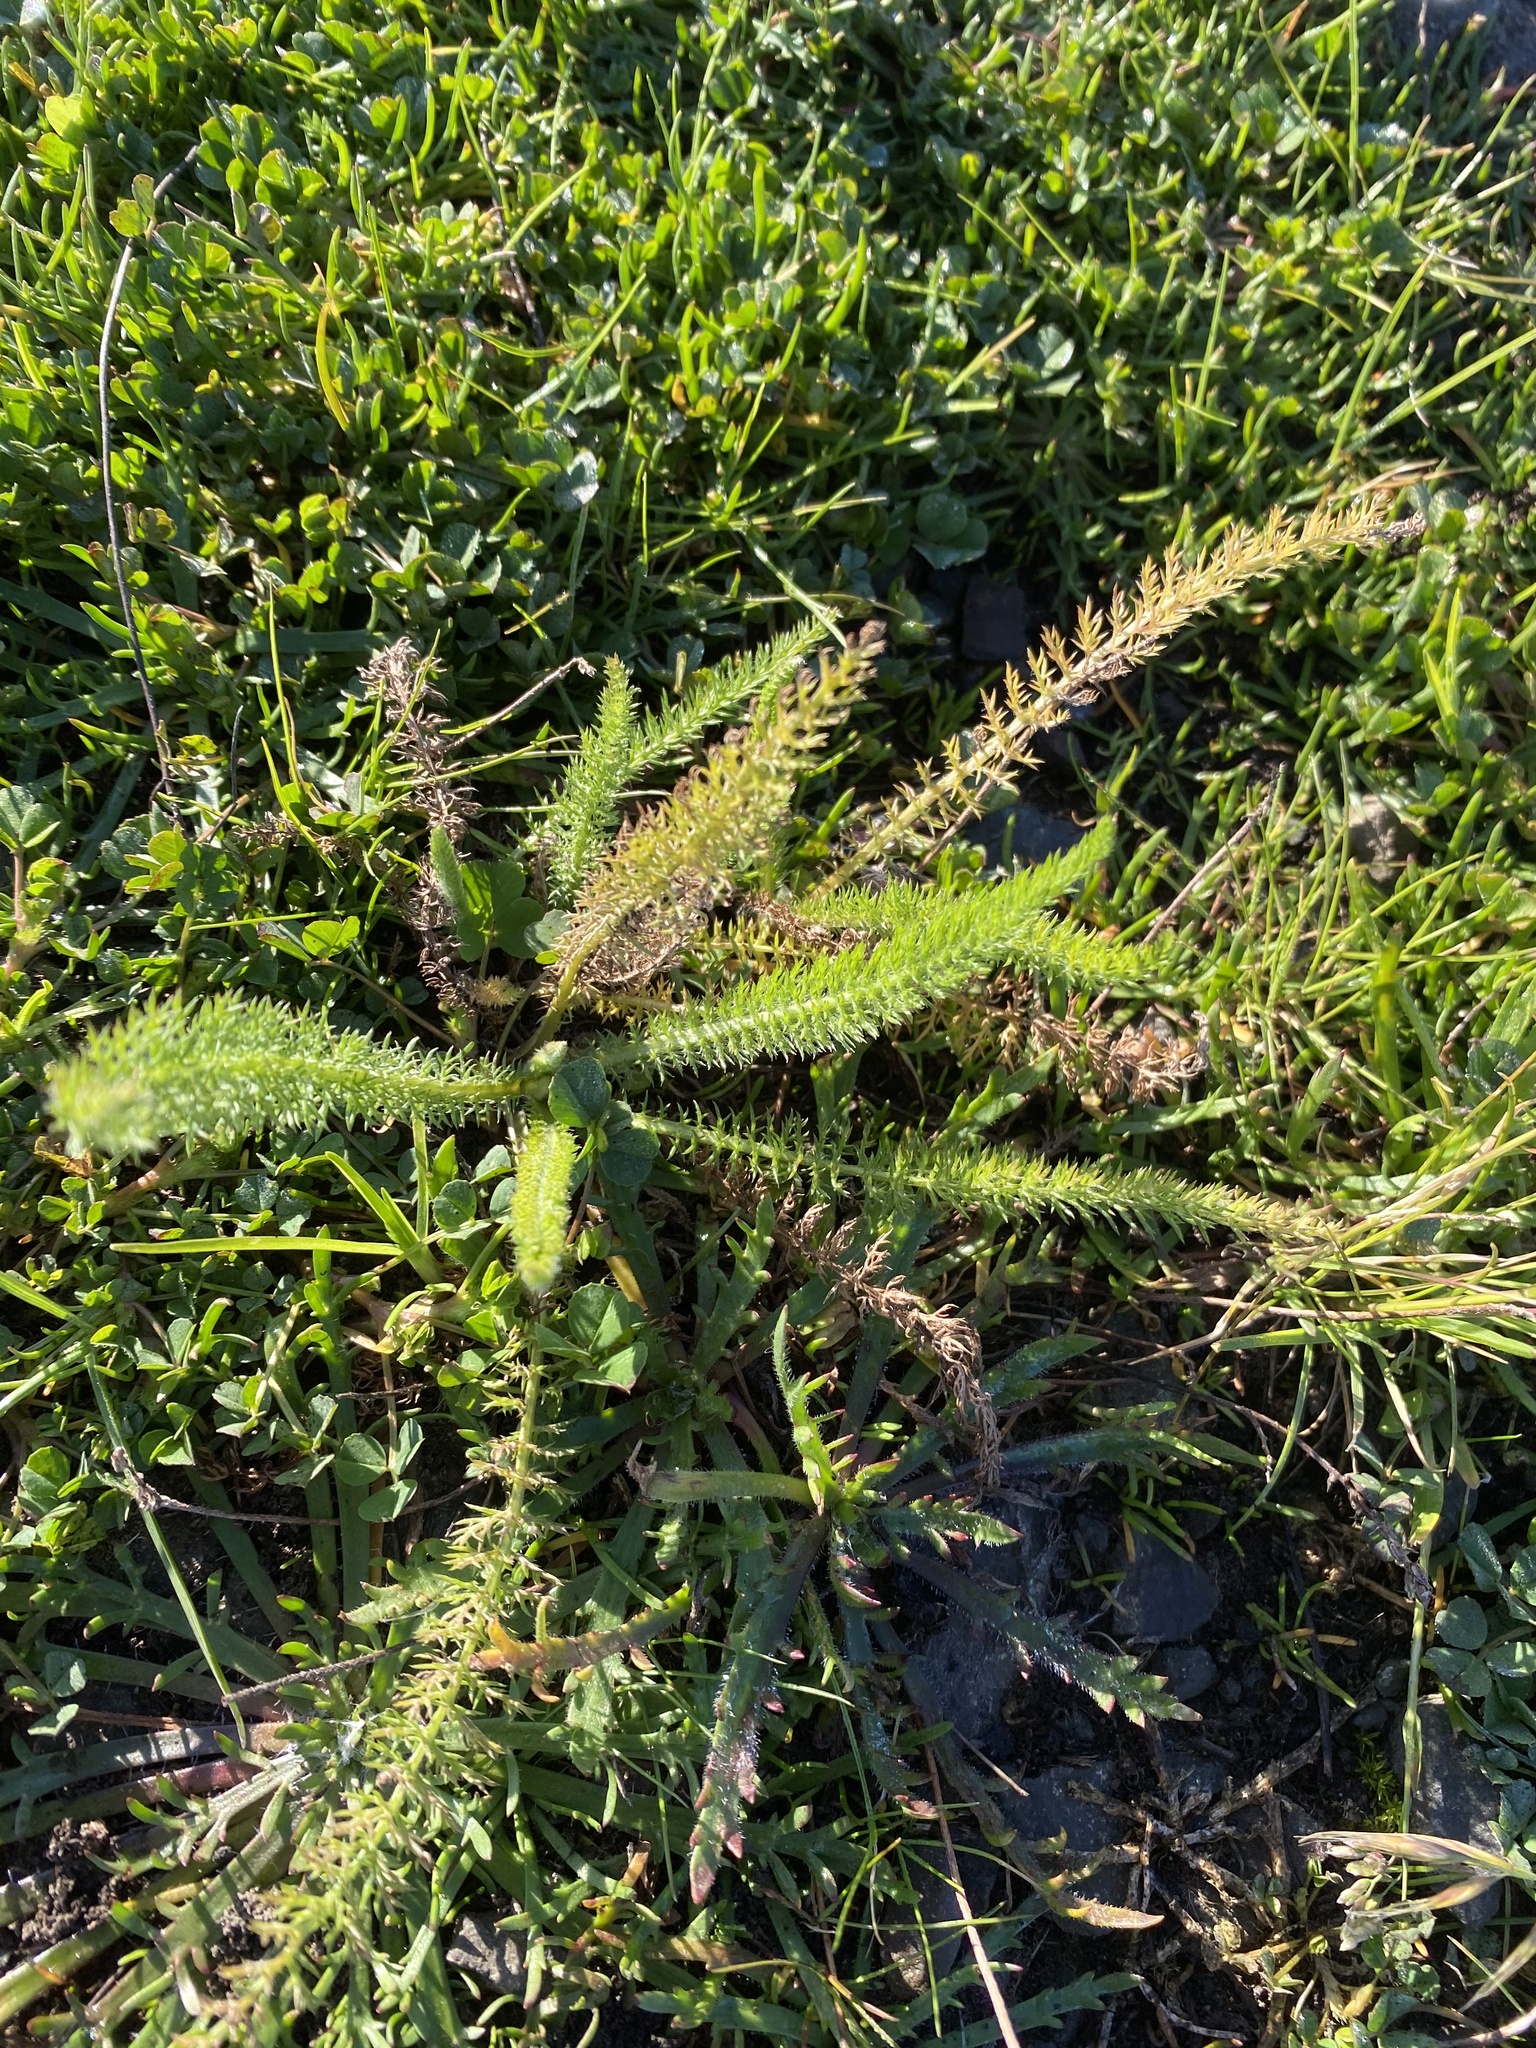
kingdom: Plantae
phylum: Tracheophyta
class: Magnoliopsida
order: Asterales
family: Asteraceae
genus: Achillea
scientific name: Achillea millefolium
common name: Yarrow
